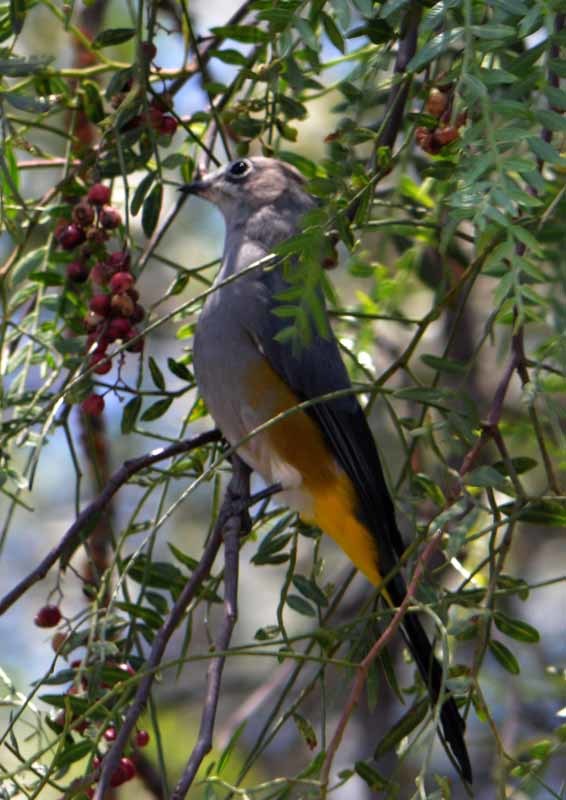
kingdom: Animalia
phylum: Chordata
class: Aves
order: Passeriformes
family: Ptilogonatidae
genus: Ptilogonys
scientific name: Ptilogonys cinereus
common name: Gray silky-flycatcher
